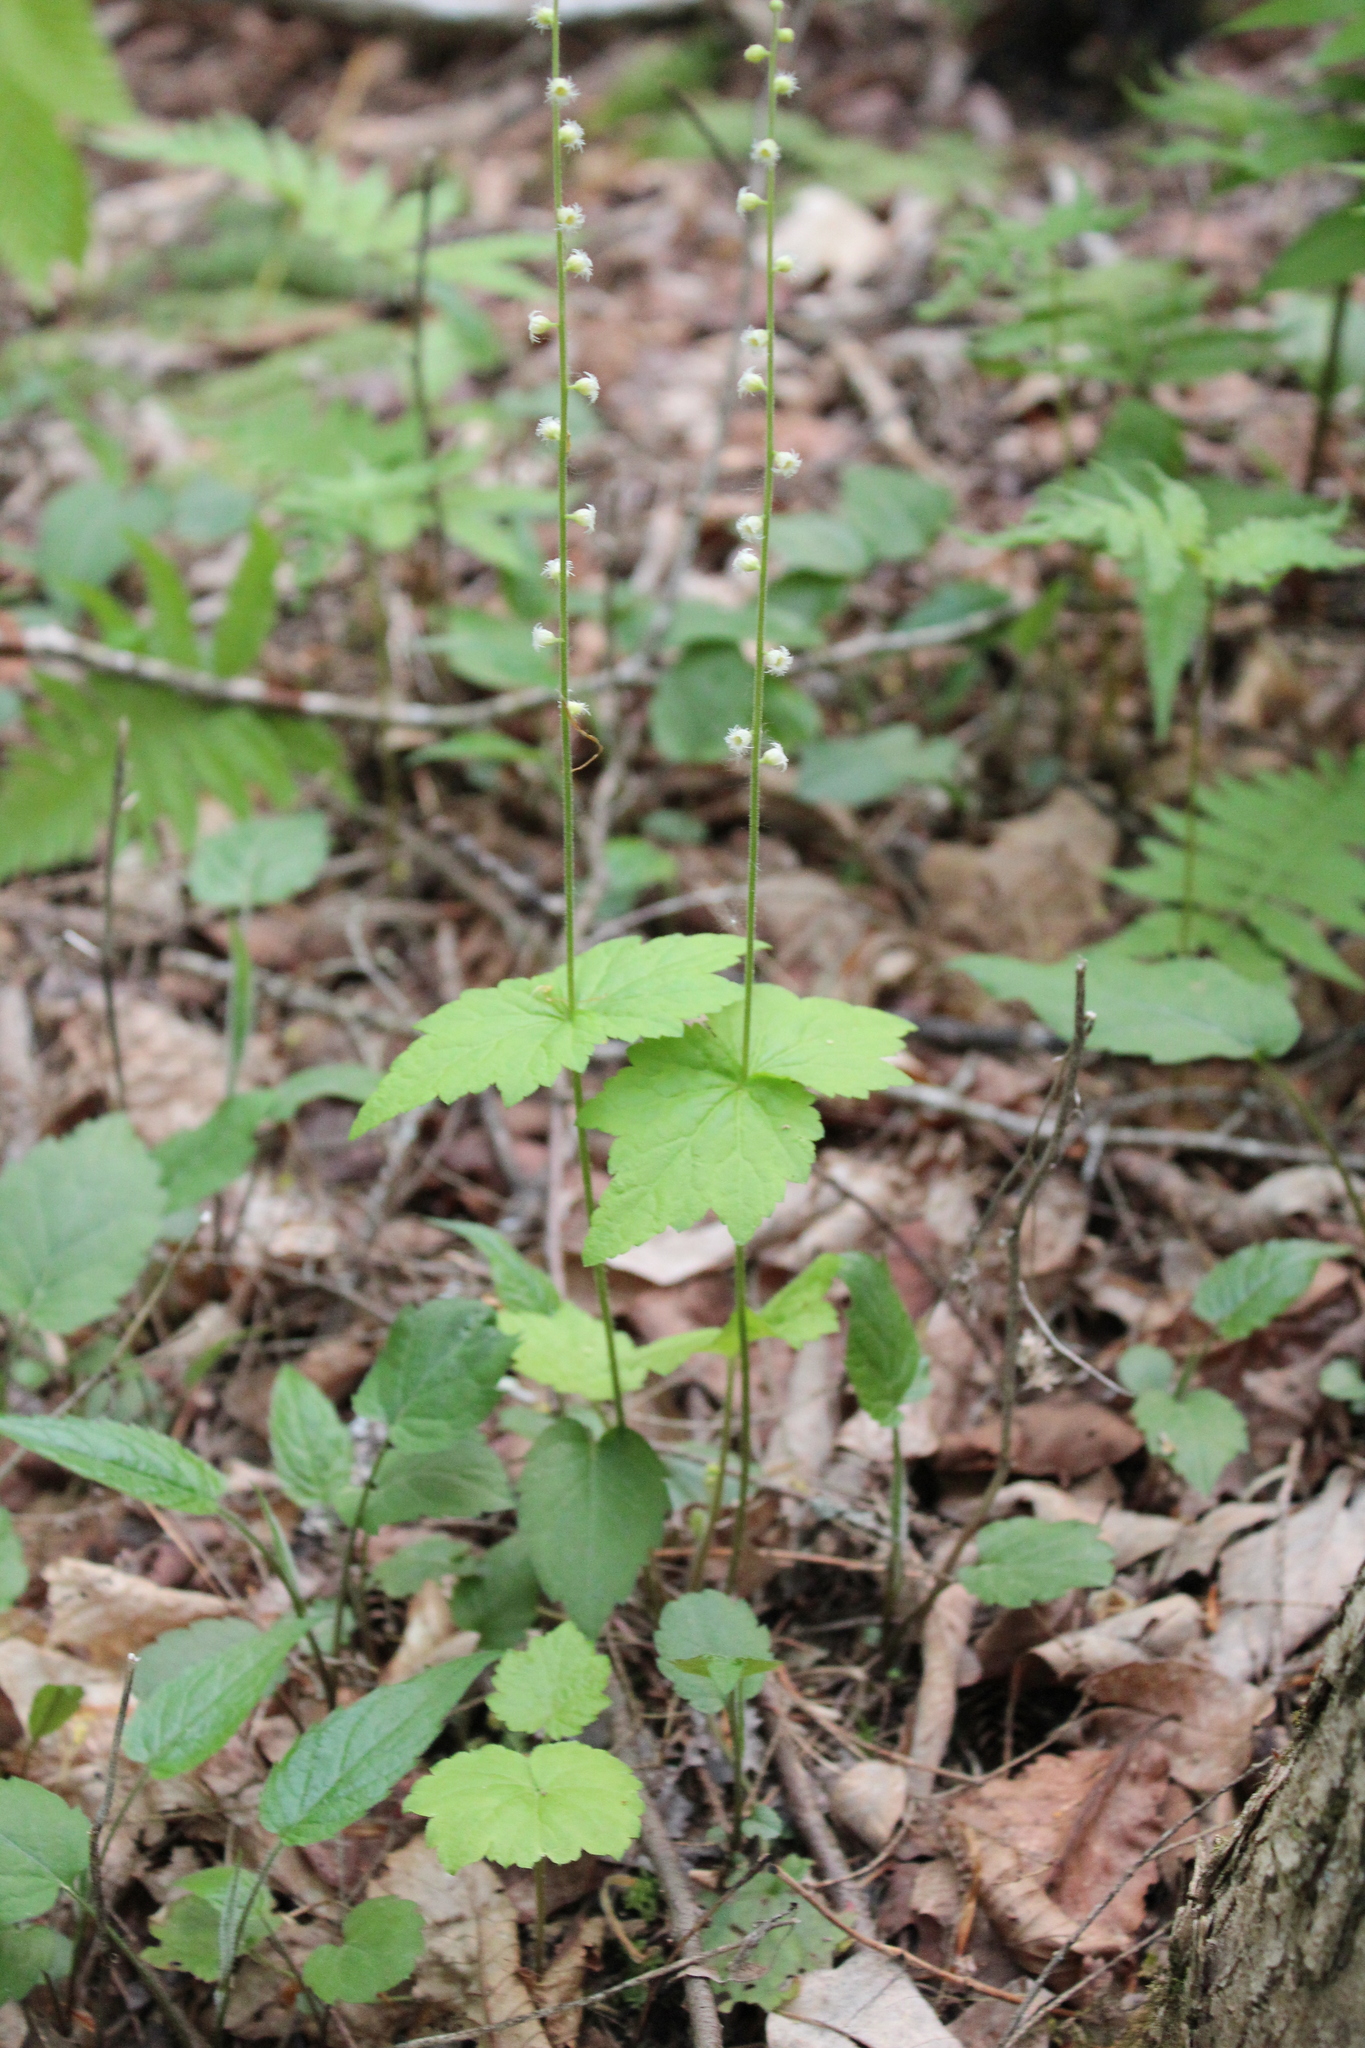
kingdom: Plantae
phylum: Tracheophyta
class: Magnoliopsida
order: Saxifragales
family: Saxifragaceae
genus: Mitella
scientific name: Mitella diphylla
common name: Coolwort
